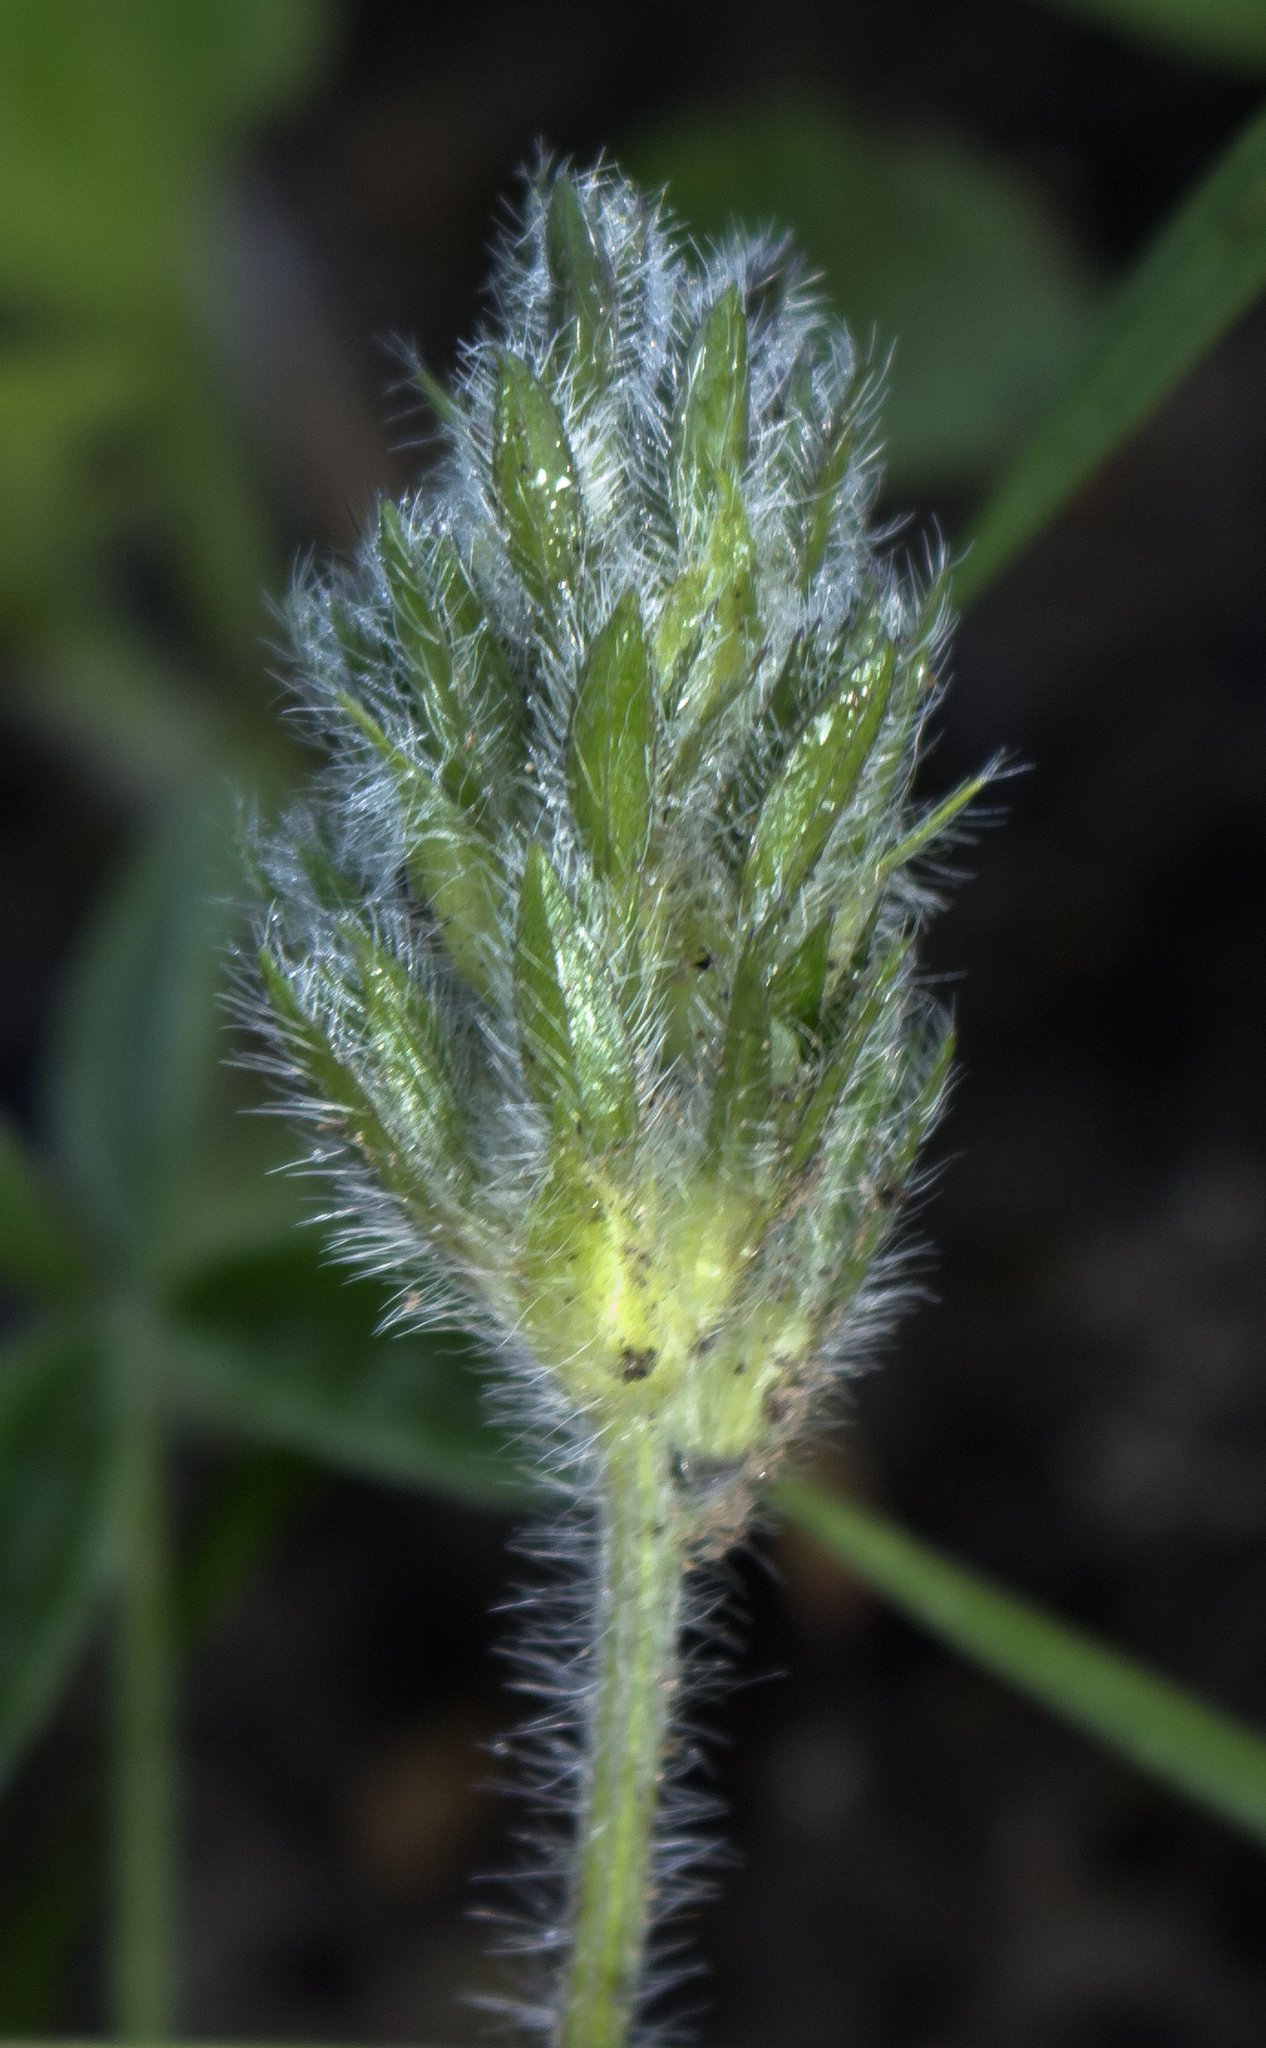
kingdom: Plantae
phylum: Tracheophyta
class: Magnoliopsida
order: Fabales
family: Fabaceae
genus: Pediomelum
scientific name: Pediomelum esculentum
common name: Indian-turnip
